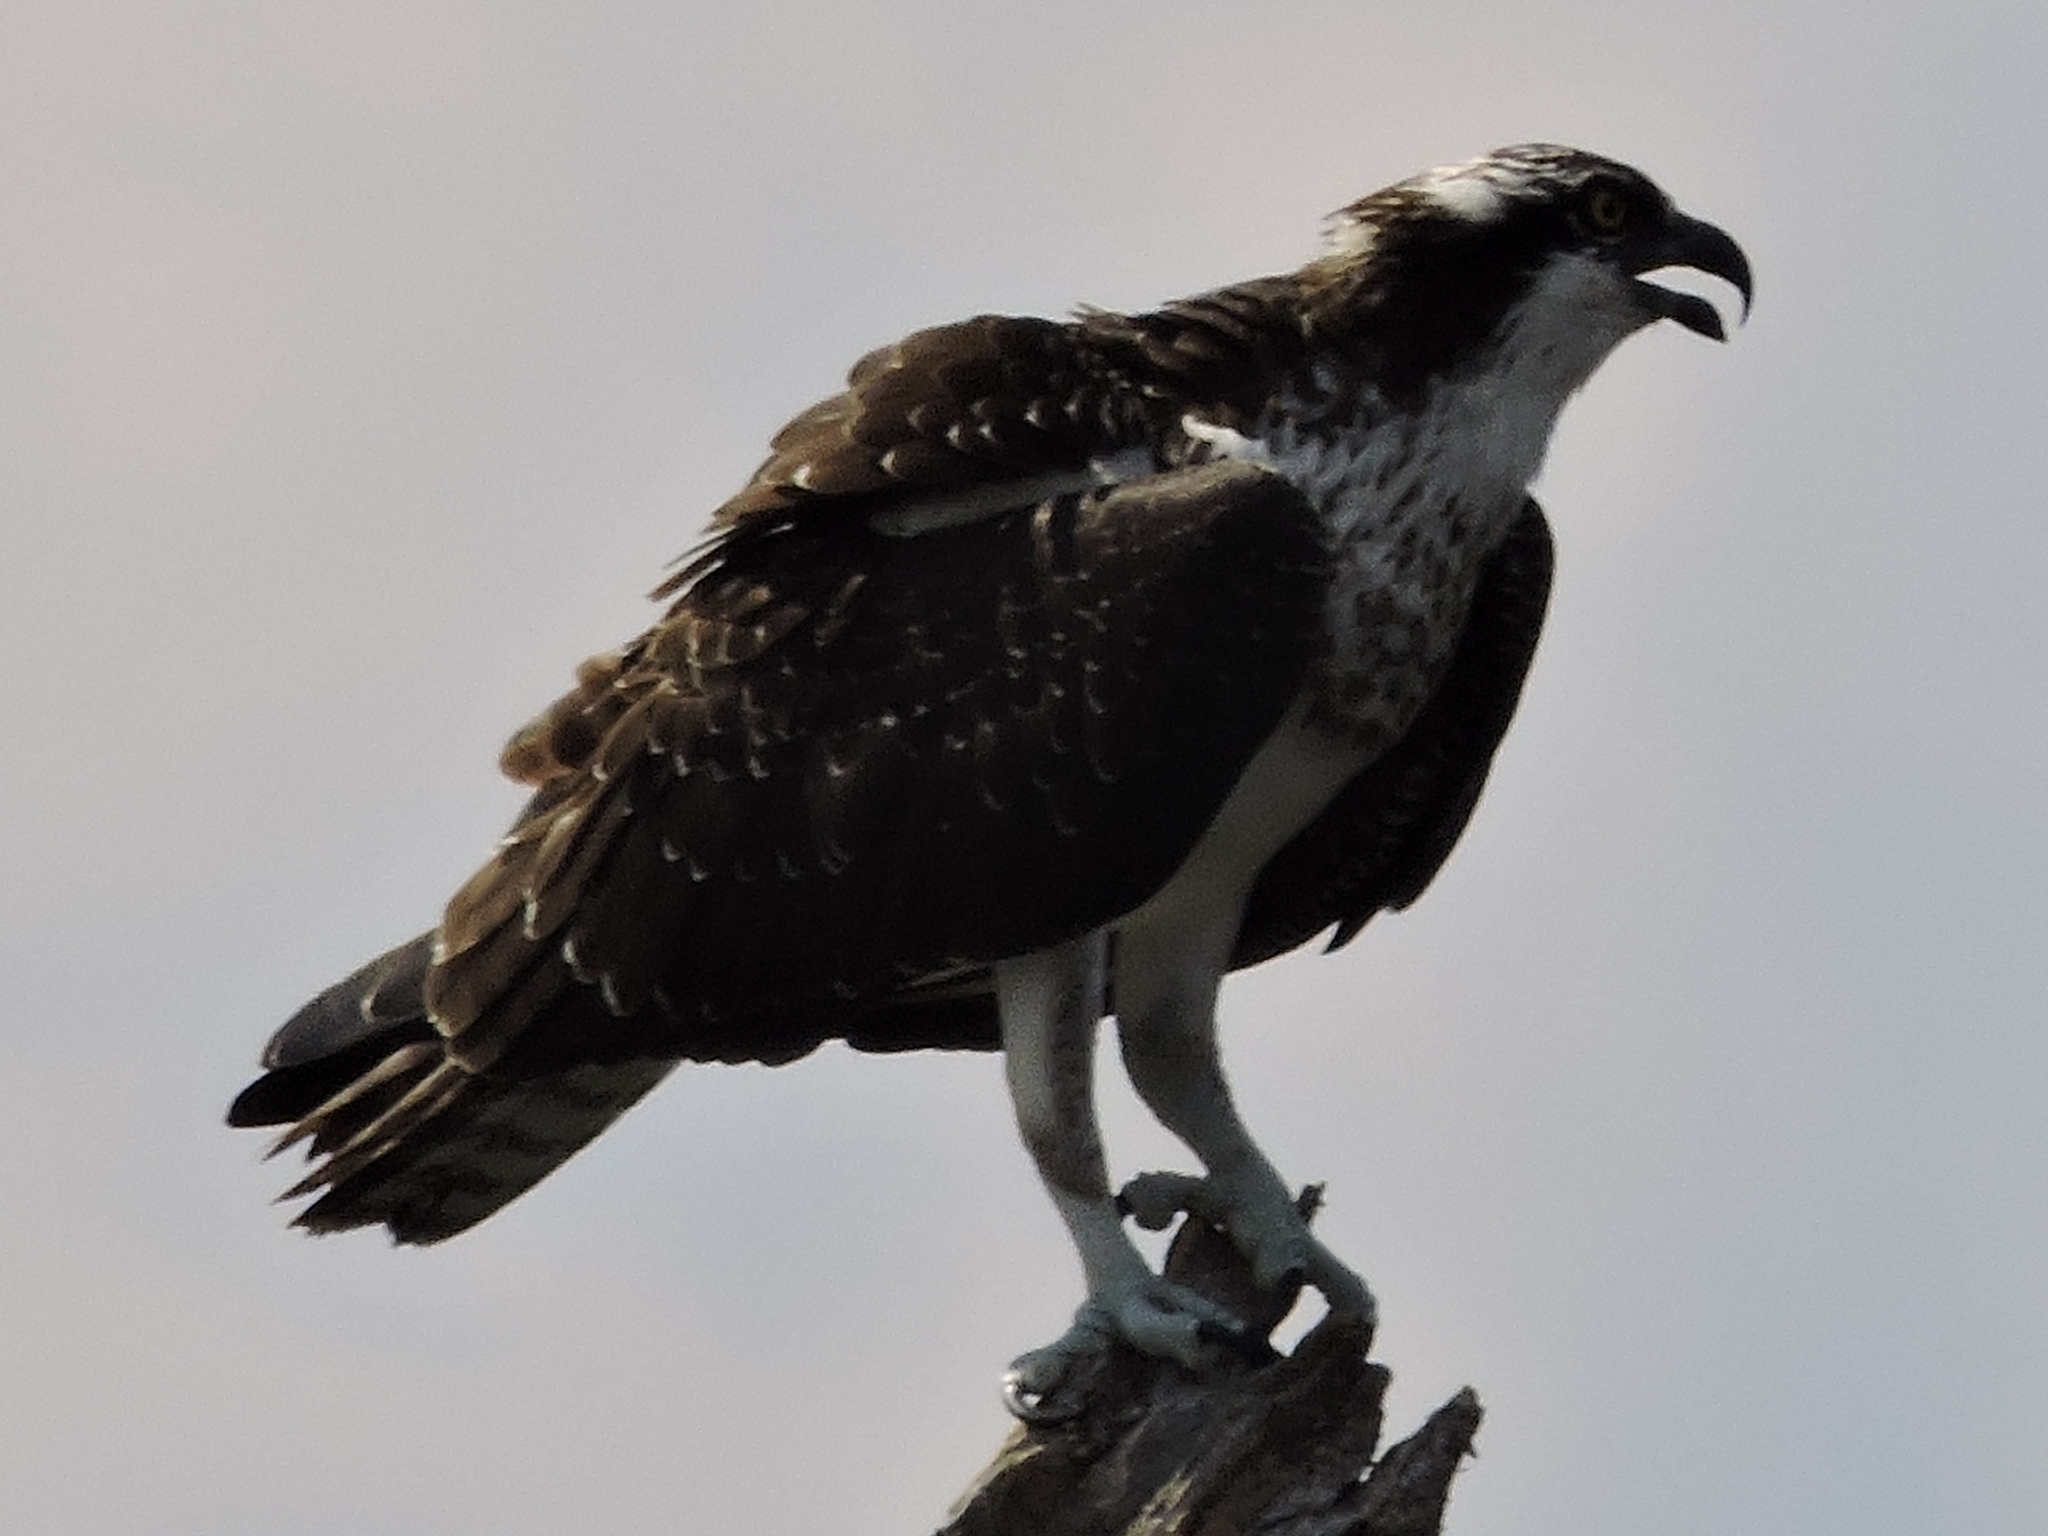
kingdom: Animalia
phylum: Chordata
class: Aves
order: Accipitriformes
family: Pandionidae
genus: Pandion
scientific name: Pandion haliaetus
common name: Osprey
